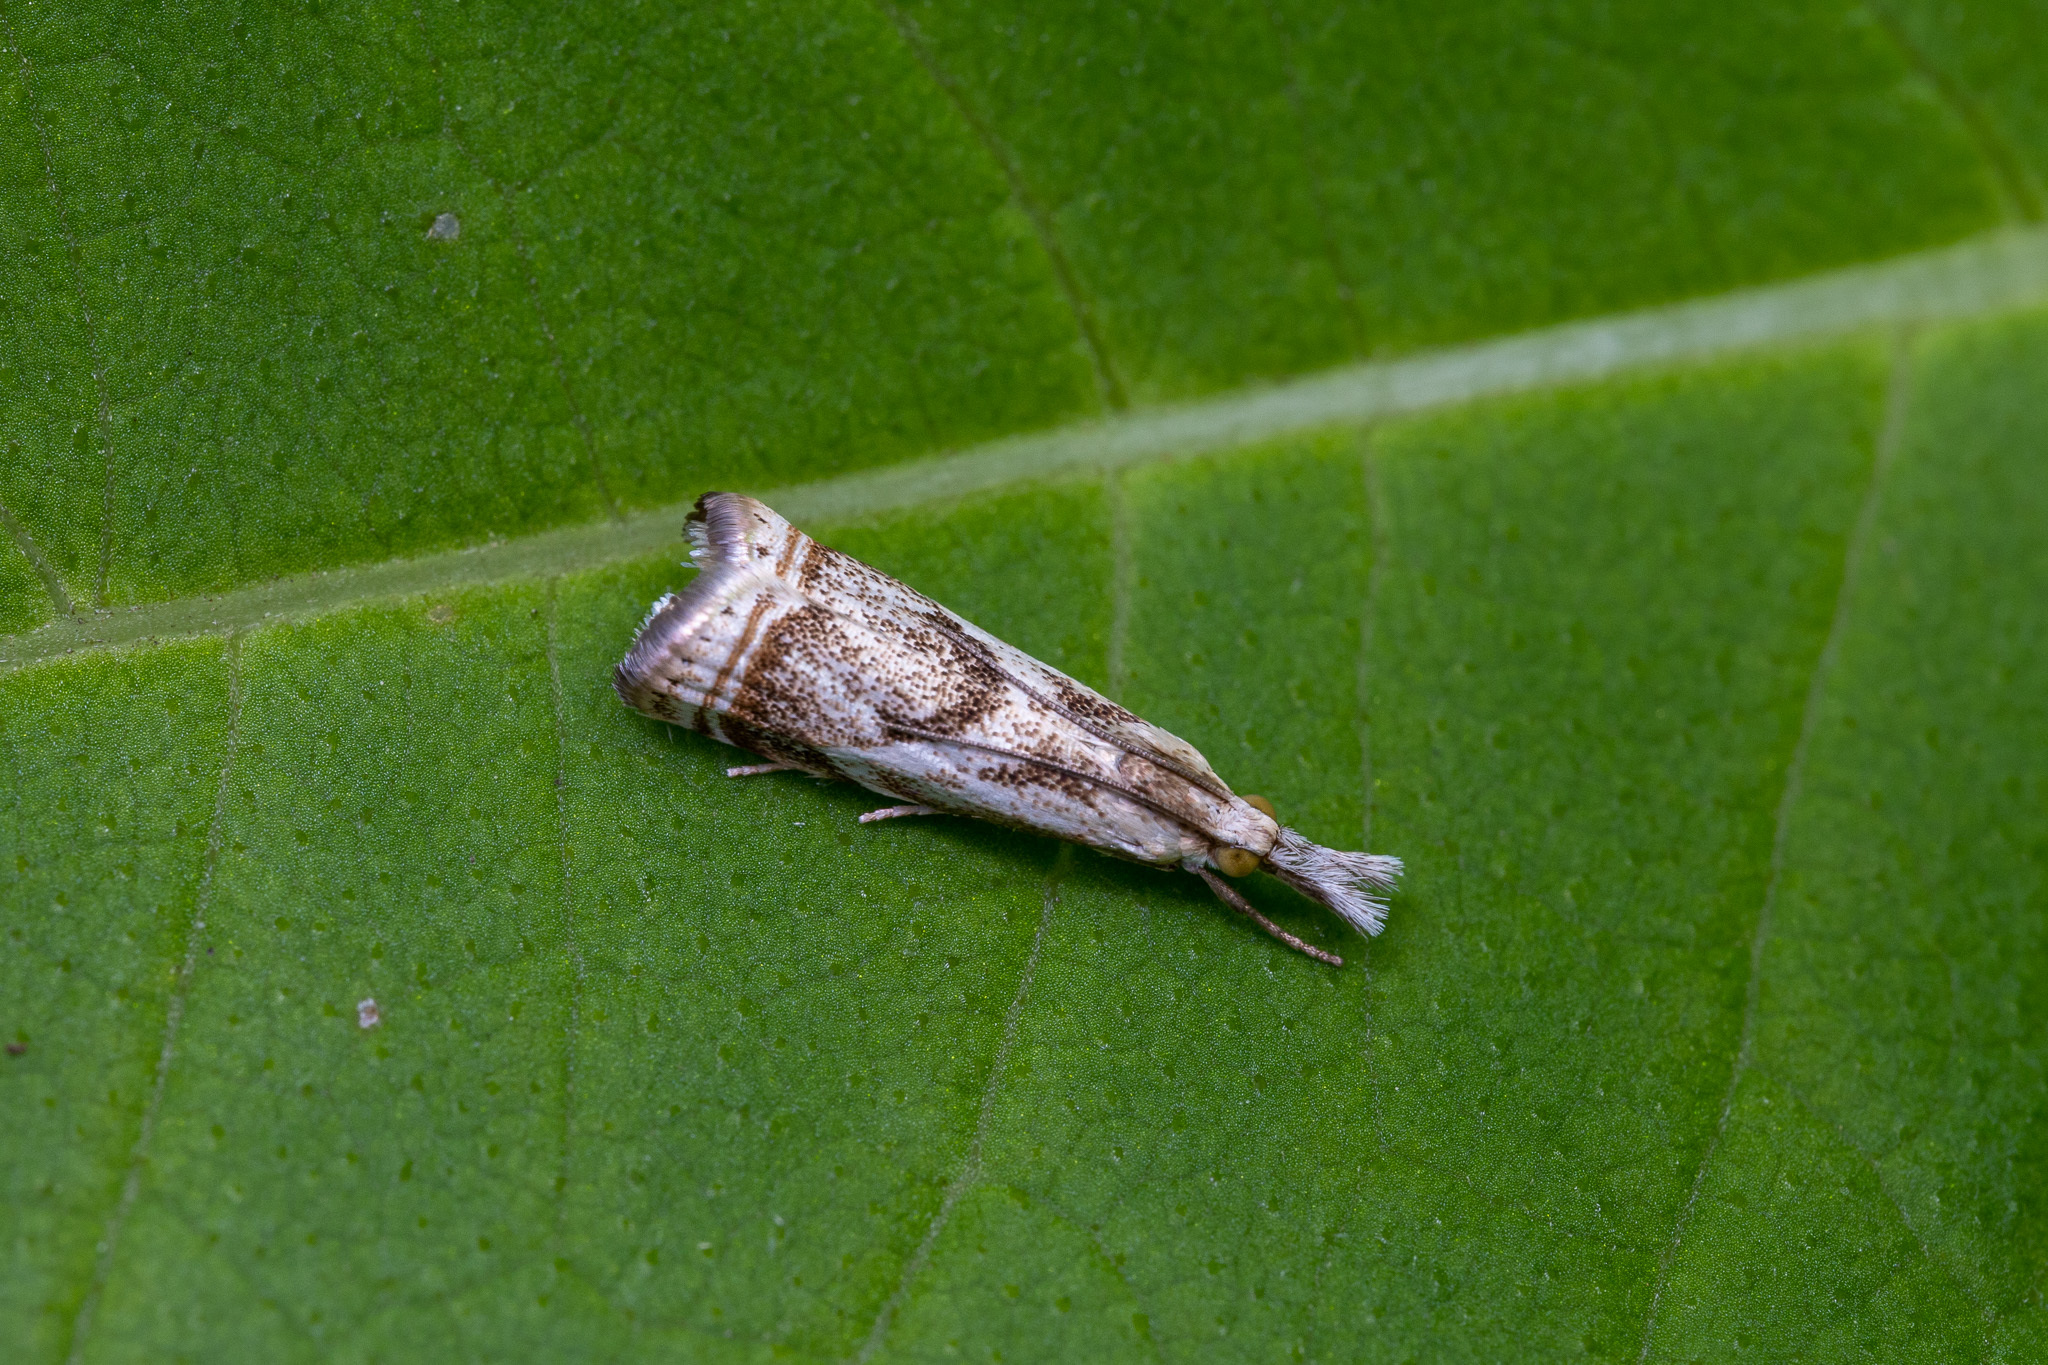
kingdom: Animalia
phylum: Arthropoda
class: Insecta
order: Lepidoptera
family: Crambidae
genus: Microcrambus
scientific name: Microcrambus elegans
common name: Elegant grass-veneer
